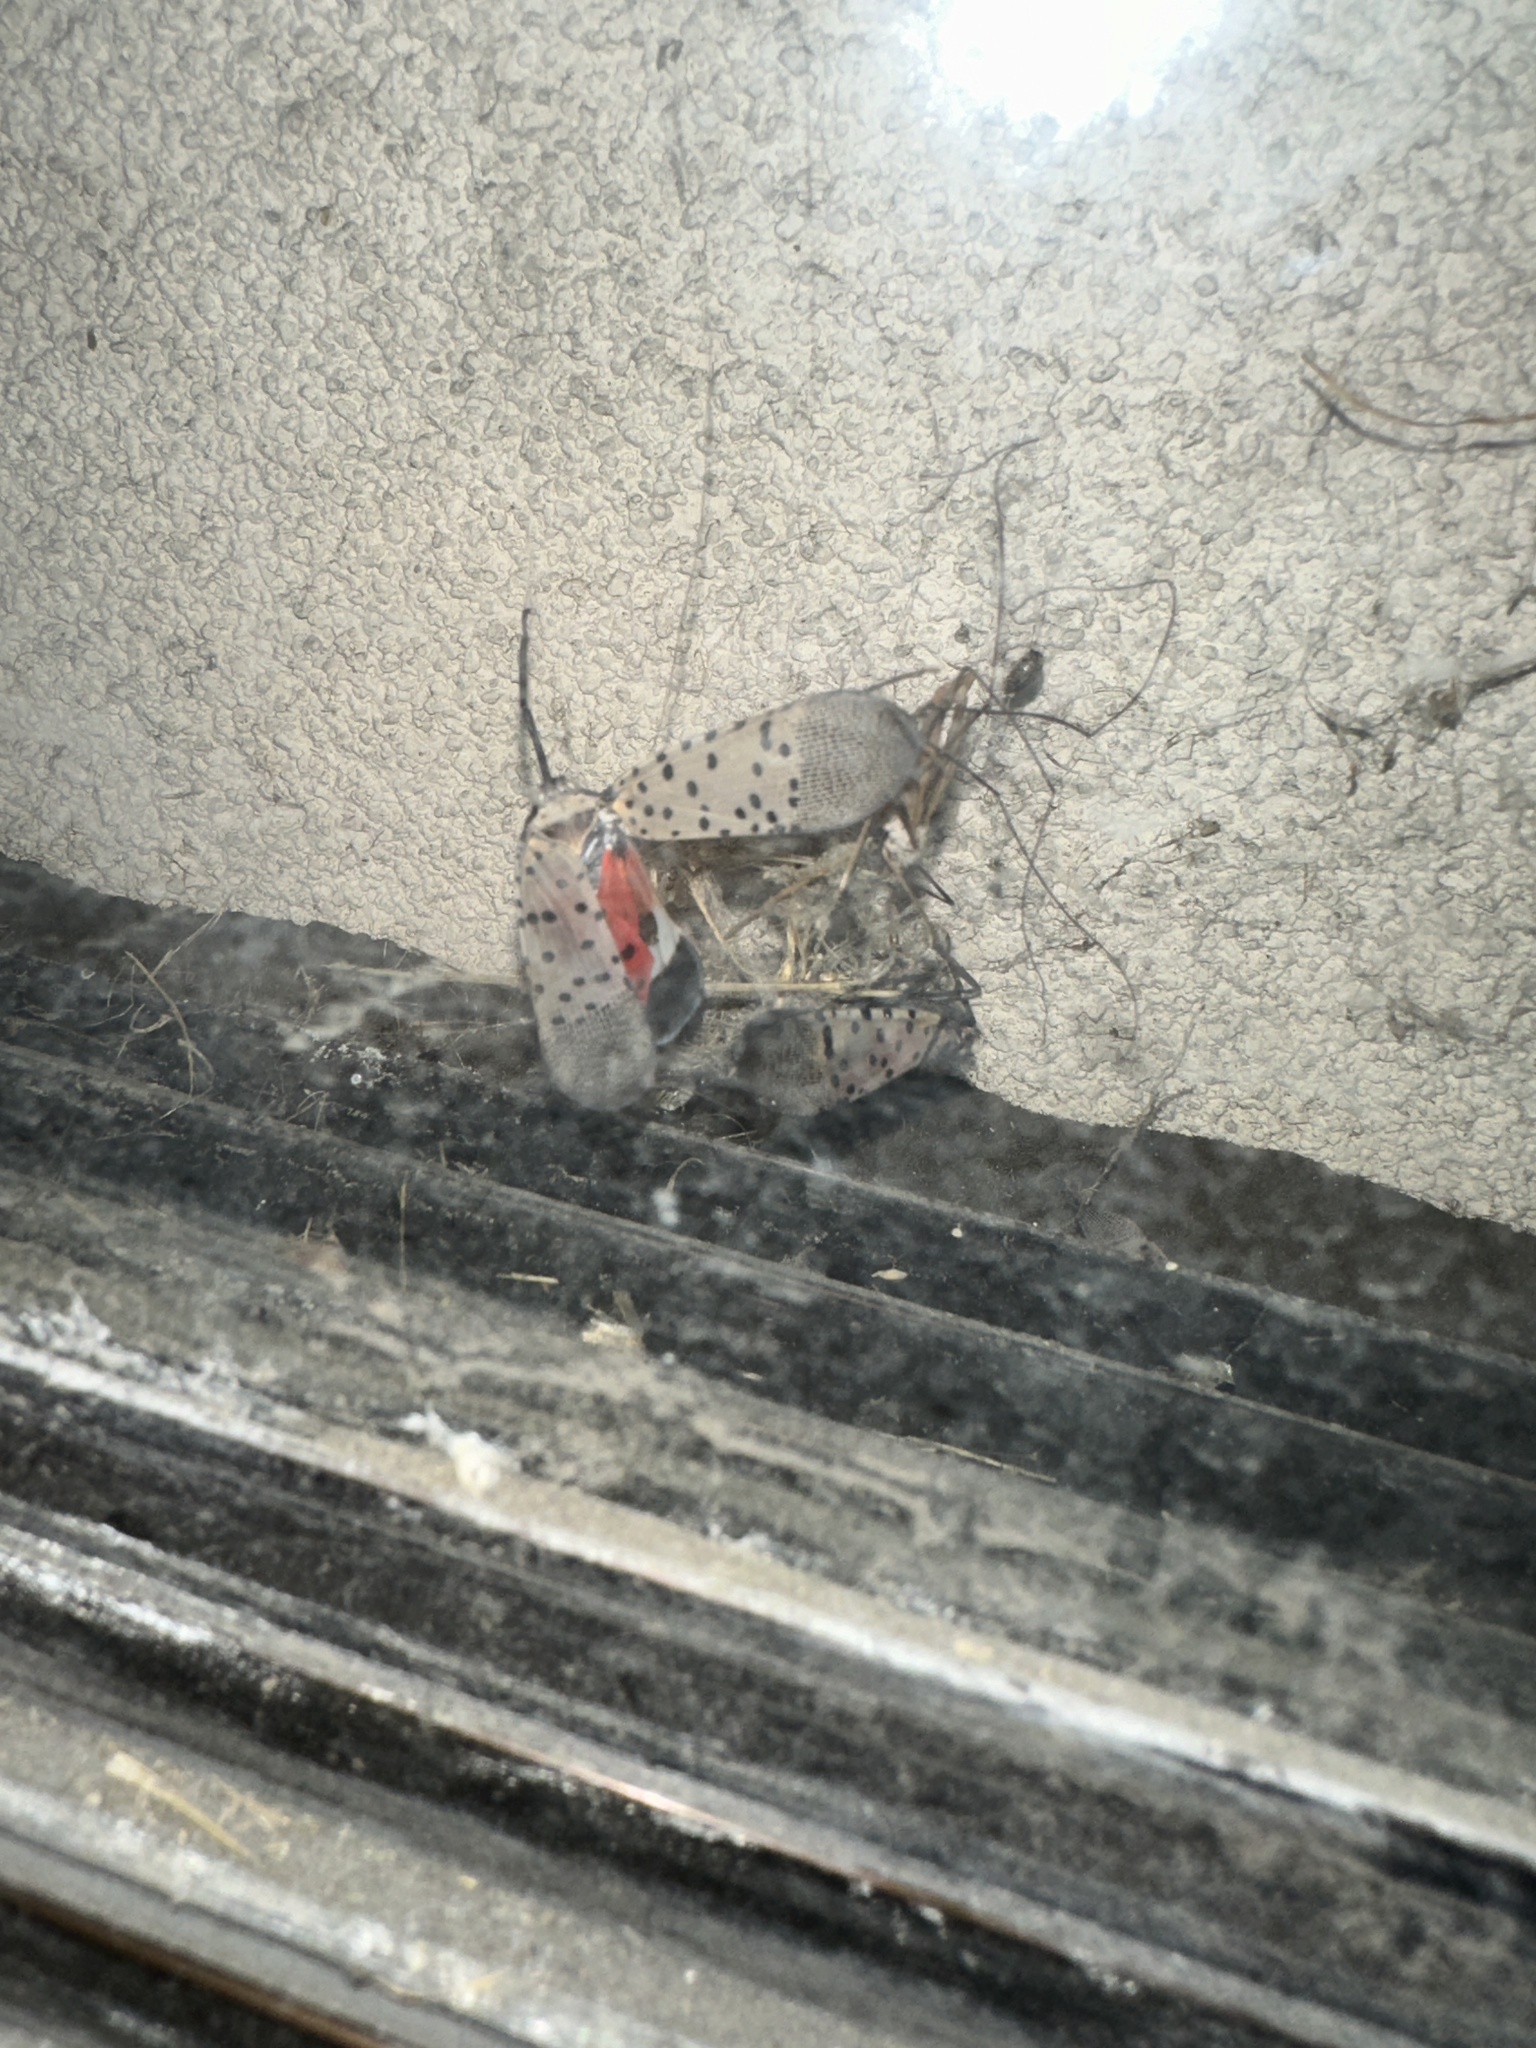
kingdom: Animalia
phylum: Arthropoda
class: Insecta
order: Hemiptera
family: Fulgoridae
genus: Lycorma
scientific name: Lycorma delicatula
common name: Spotted lanternfly
